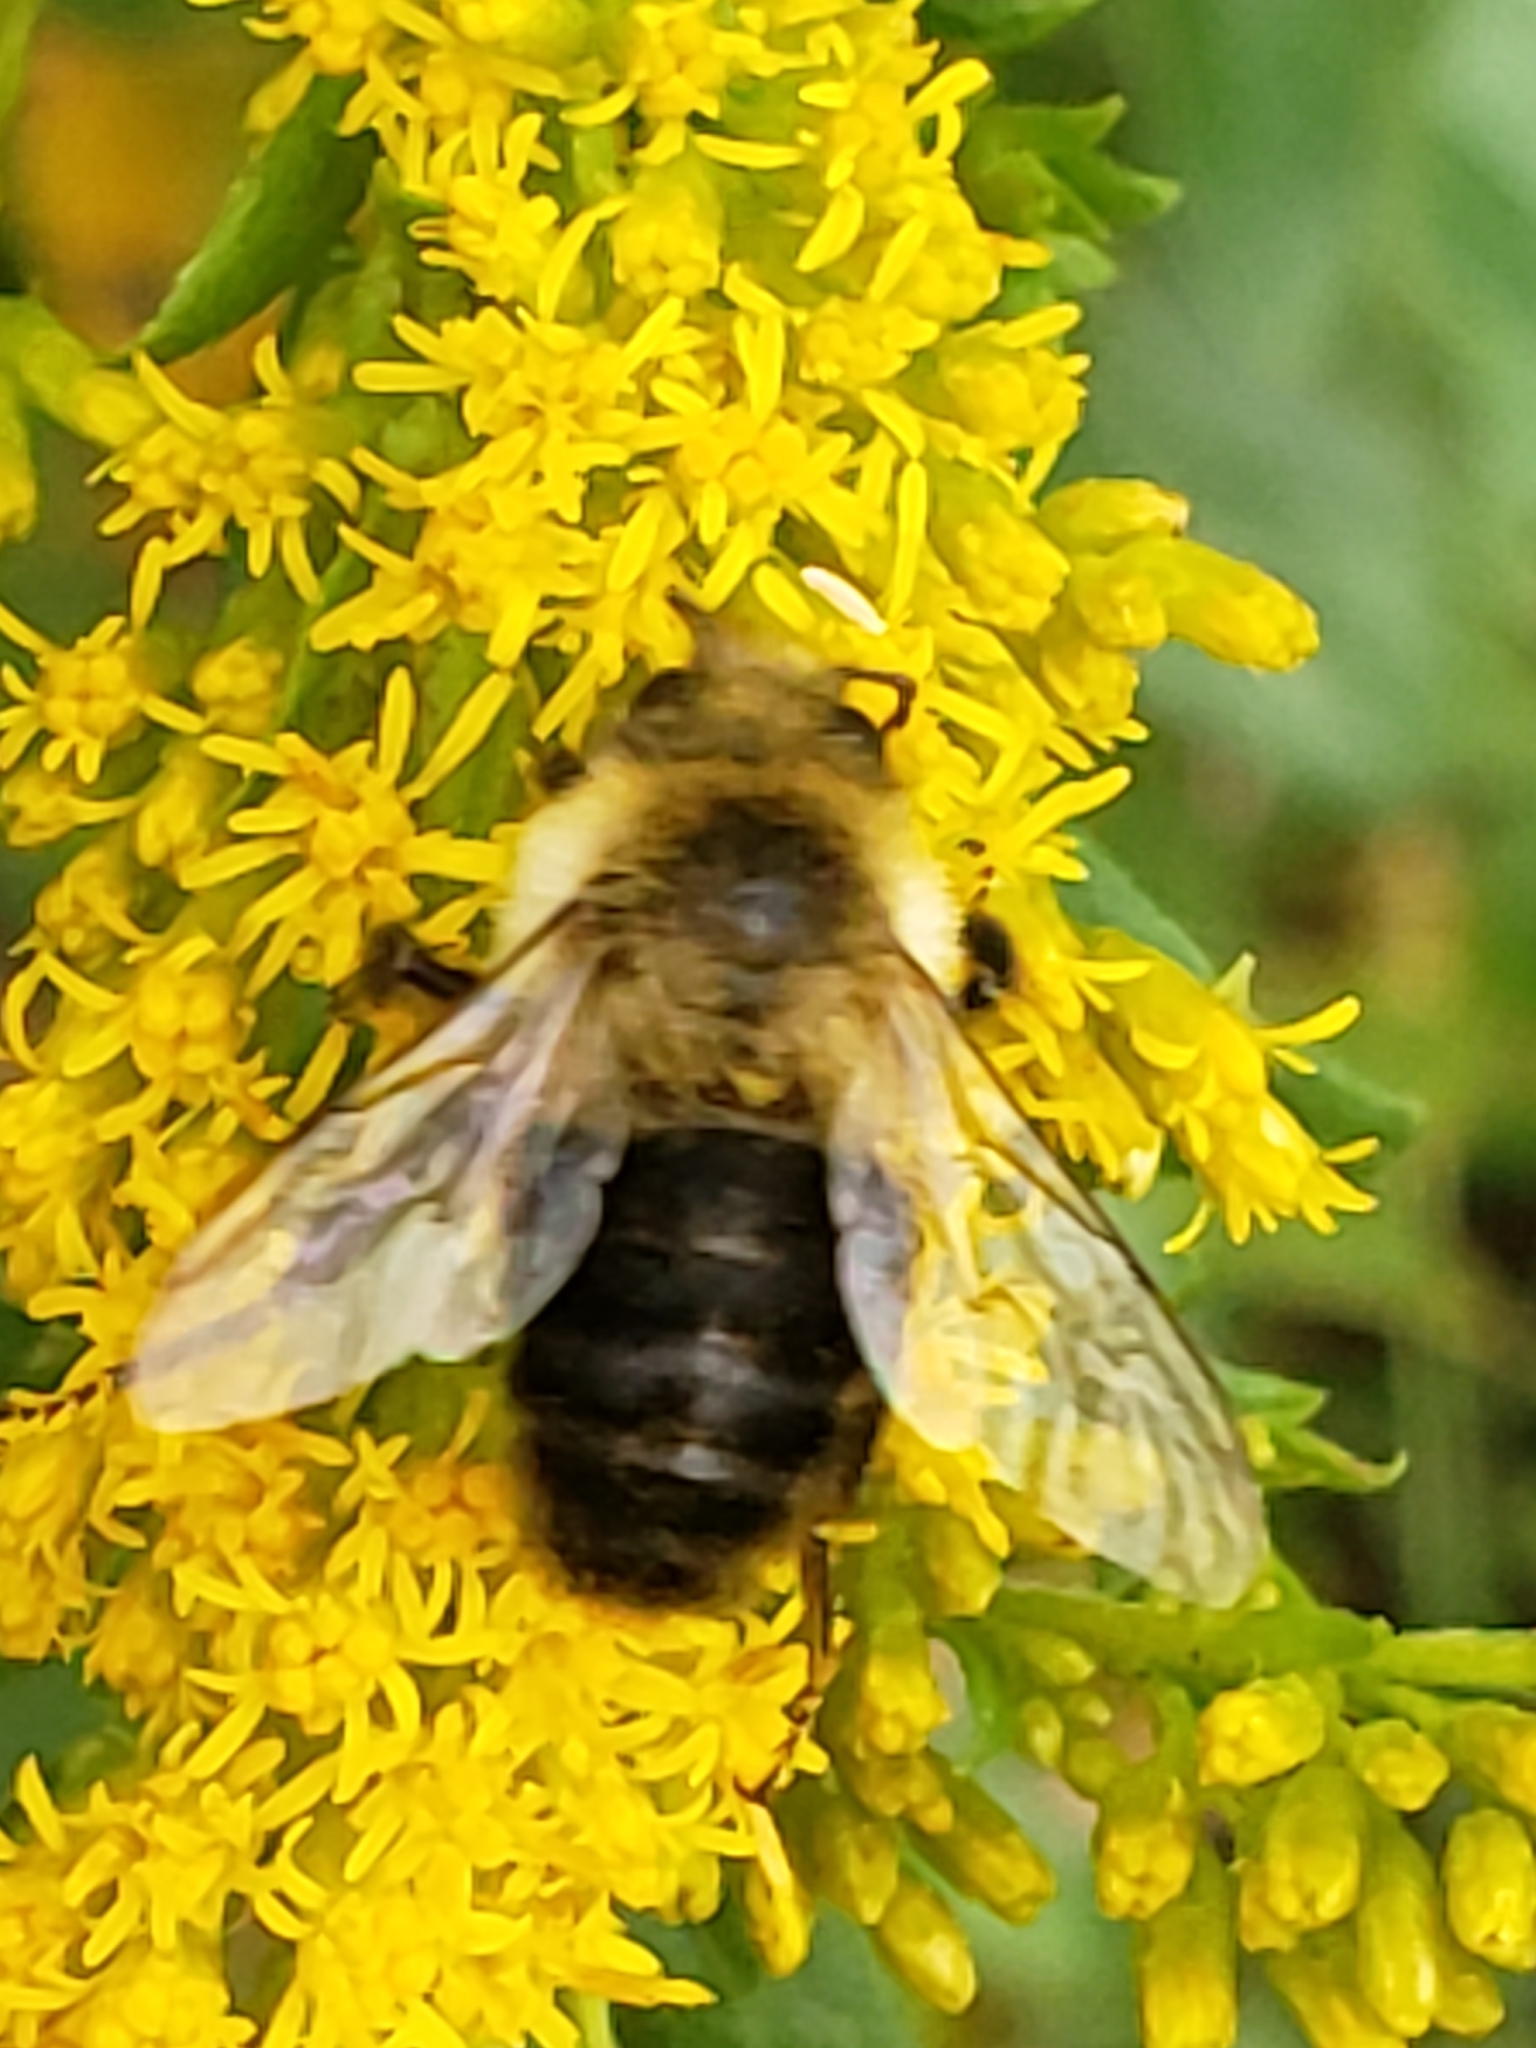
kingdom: Animalia
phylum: Arthropoda
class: Insecta
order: Hymenoptera
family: Apidae
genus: Bombus
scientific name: Bombus impatiens
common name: Common eastern bumble bee
